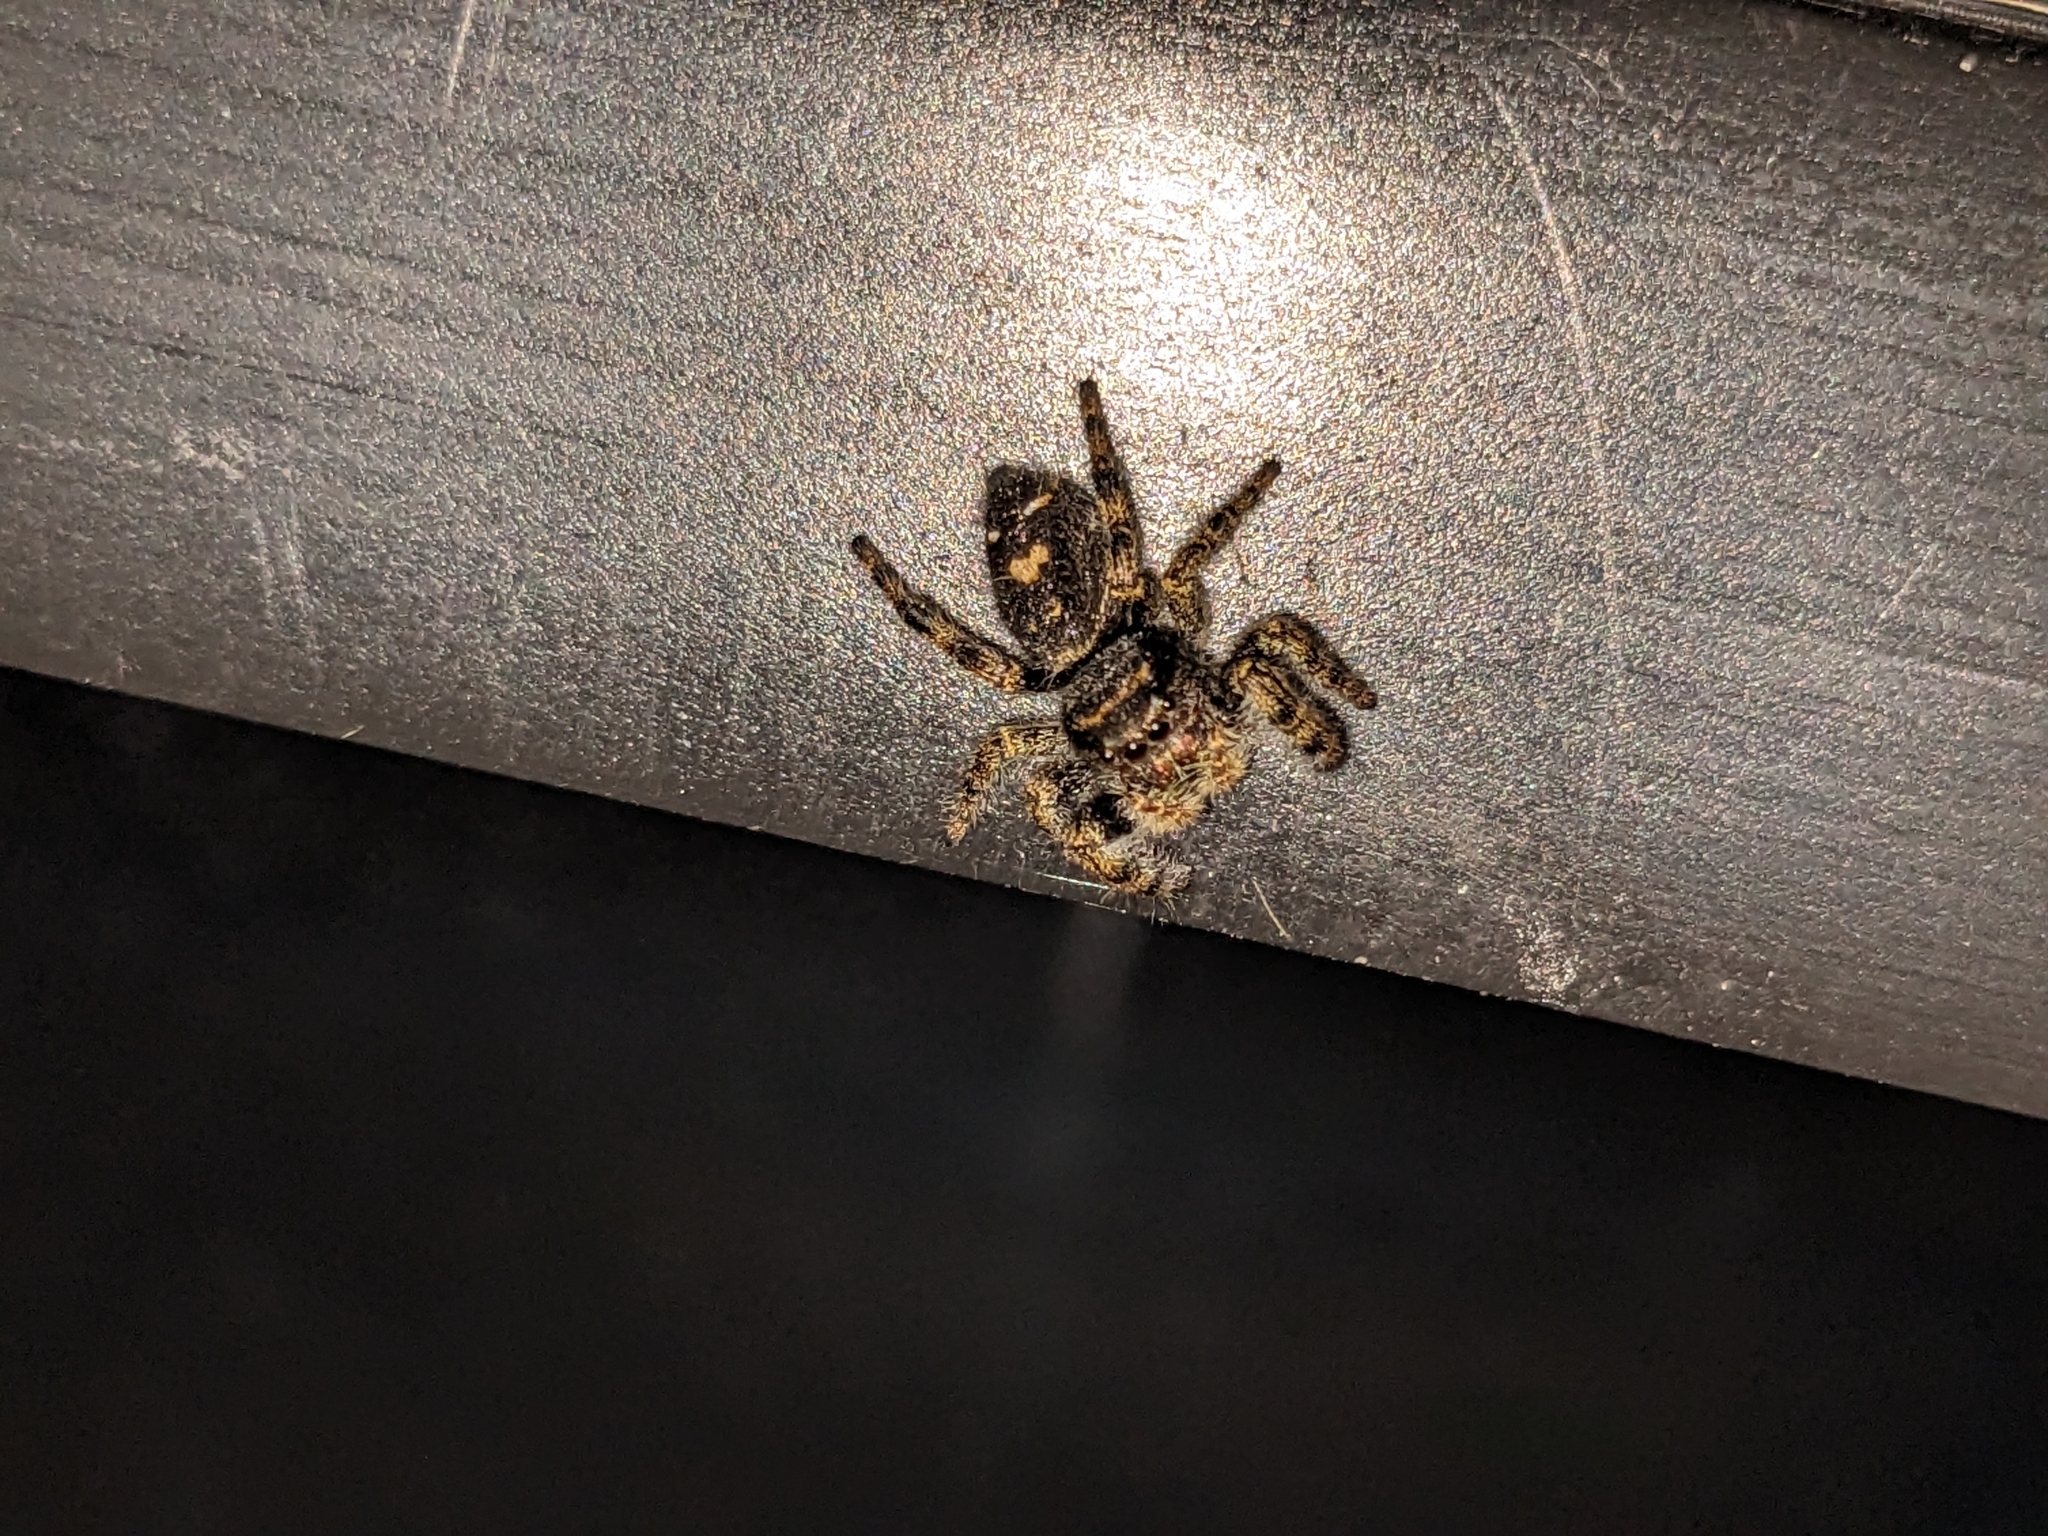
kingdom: Animalia
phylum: Arthropoda
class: Arachnida
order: Araneae
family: Salticidae
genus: Phidippus
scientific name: Phidippus audax
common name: Bold jumper
